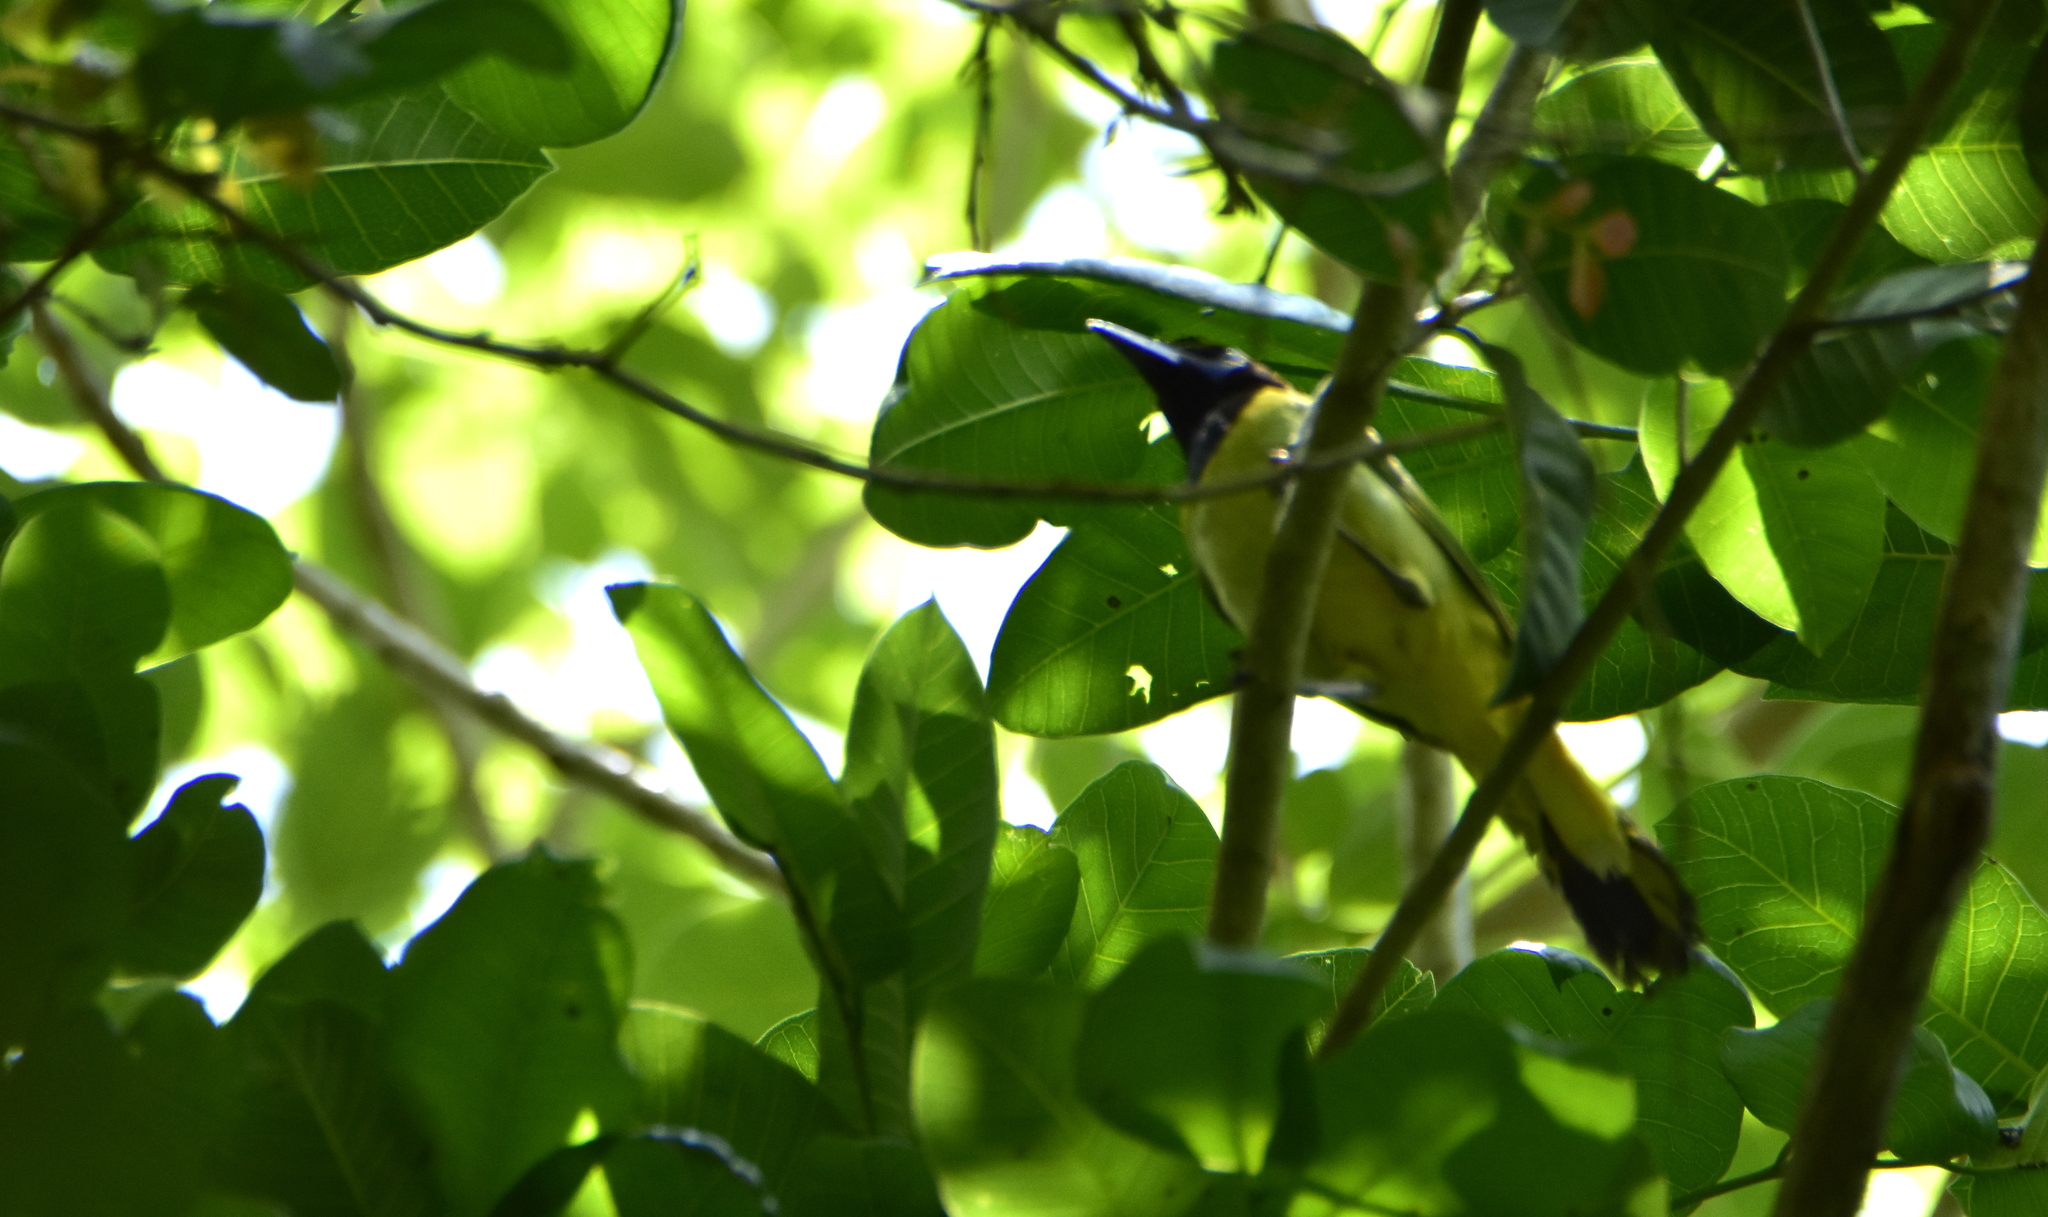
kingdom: Animalia
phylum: Chordata
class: Aves
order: Passeriformes
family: Corvidae
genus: Cyanocorax
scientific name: Cyanocorax yncas
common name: Green jay
